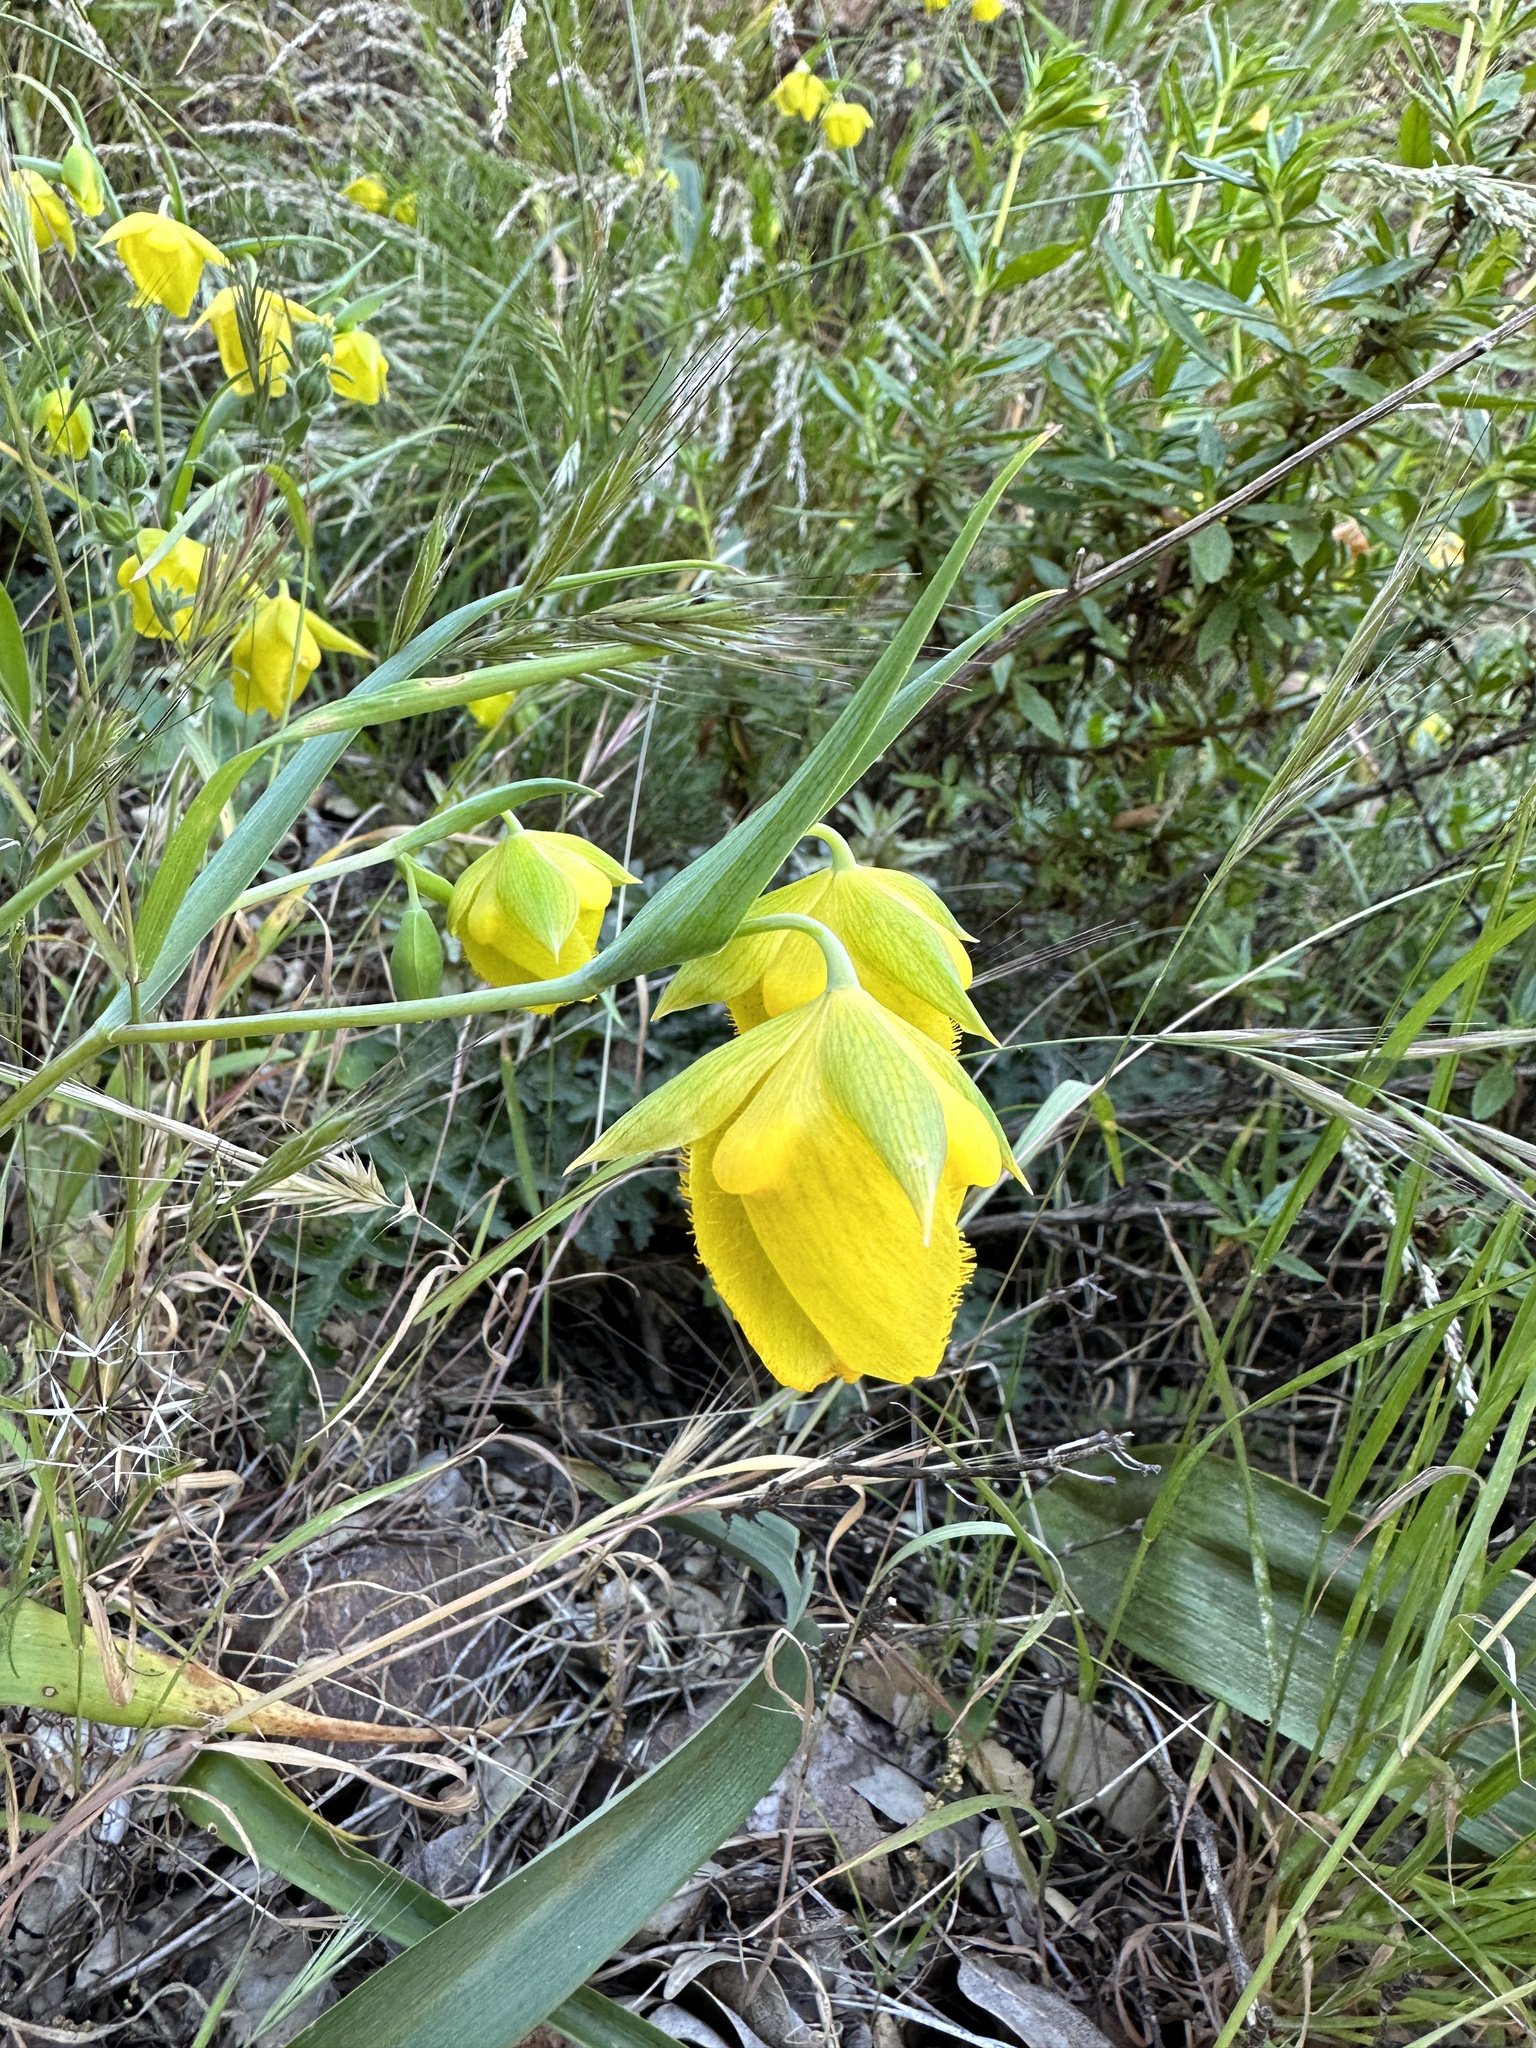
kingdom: Plantae
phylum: Tracheophyta
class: Liliopsida
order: Liliales
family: Liliaceae
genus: Calochortus
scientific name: Calochortus pulchellus
